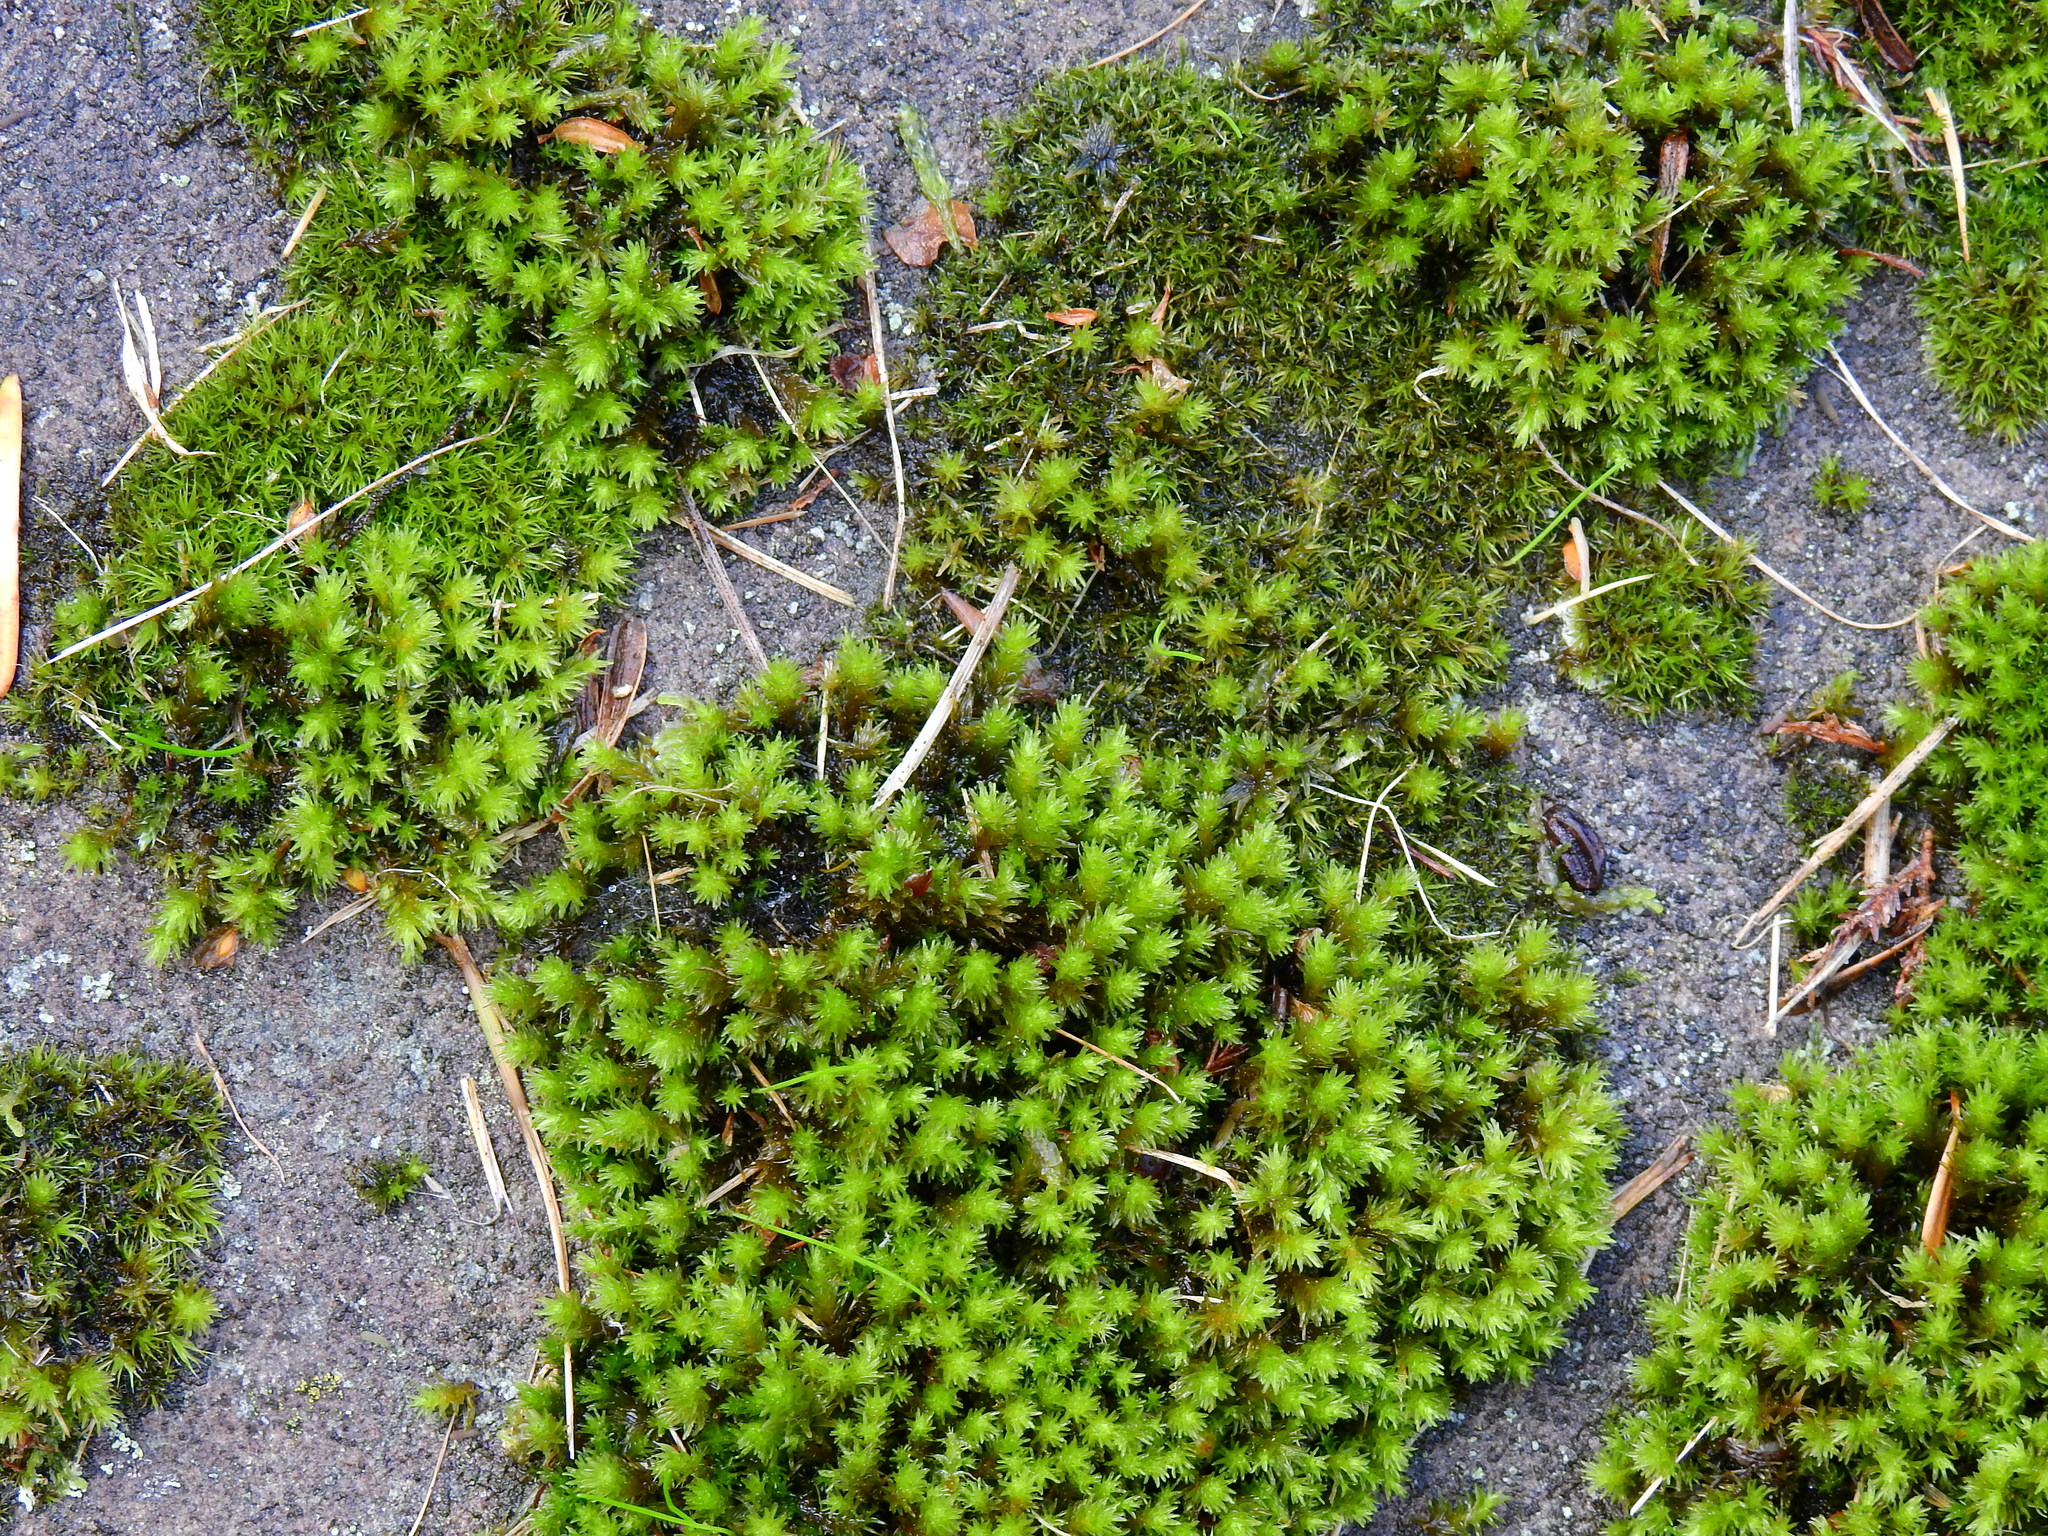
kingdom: Plantae
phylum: Bryophyta
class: Bryopsida
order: Grimmiales
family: Grimmiaceae
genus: Codriophorus
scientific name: Codriophorus acicularis
